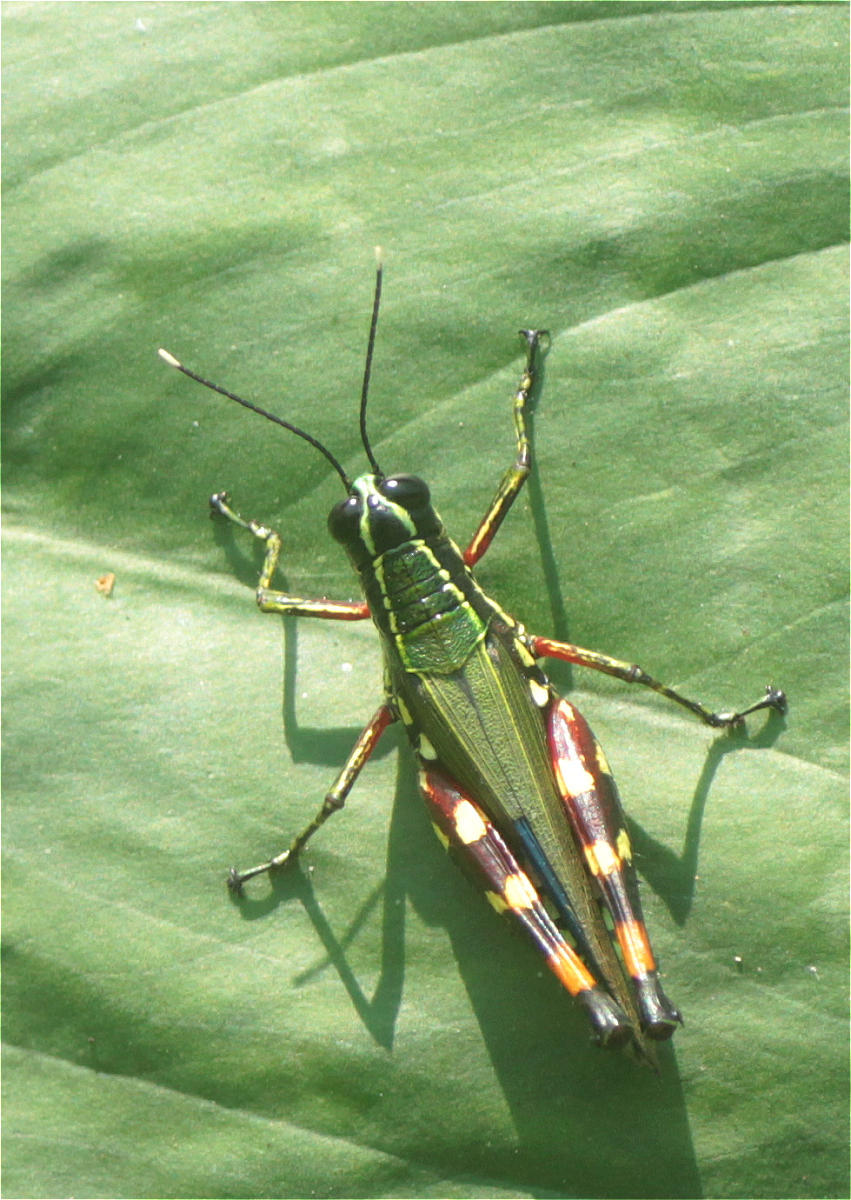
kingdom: Animalia
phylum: Arthropoda
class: Insecta
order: Orthoptera
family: Acrididae
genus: Tetrataenia
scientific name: Tetrataenia surinama
